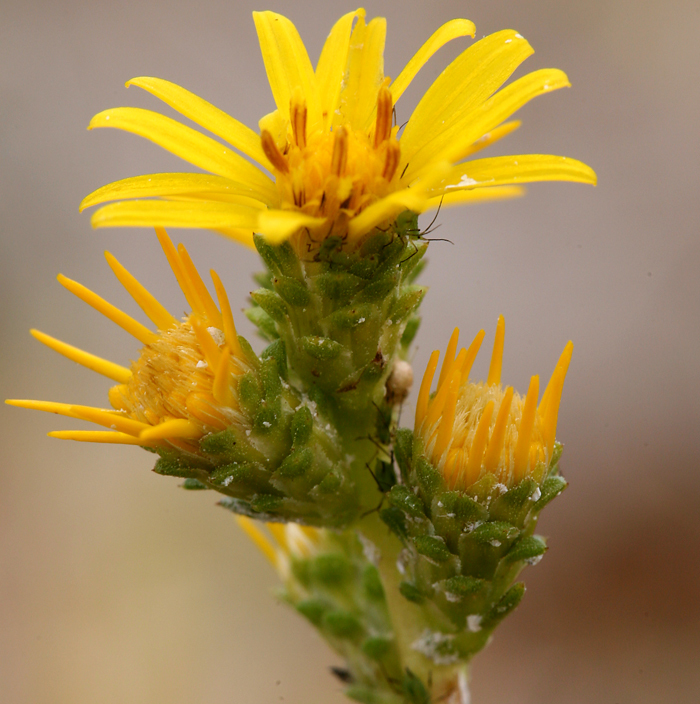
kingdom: Plantae
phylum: Tracheophyta
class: Magnoliopsida
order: Asterales
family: Asteraceae
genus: Pyrrocoma
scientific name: Pyrrocoma racemosa
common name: Clustered goldenweed
